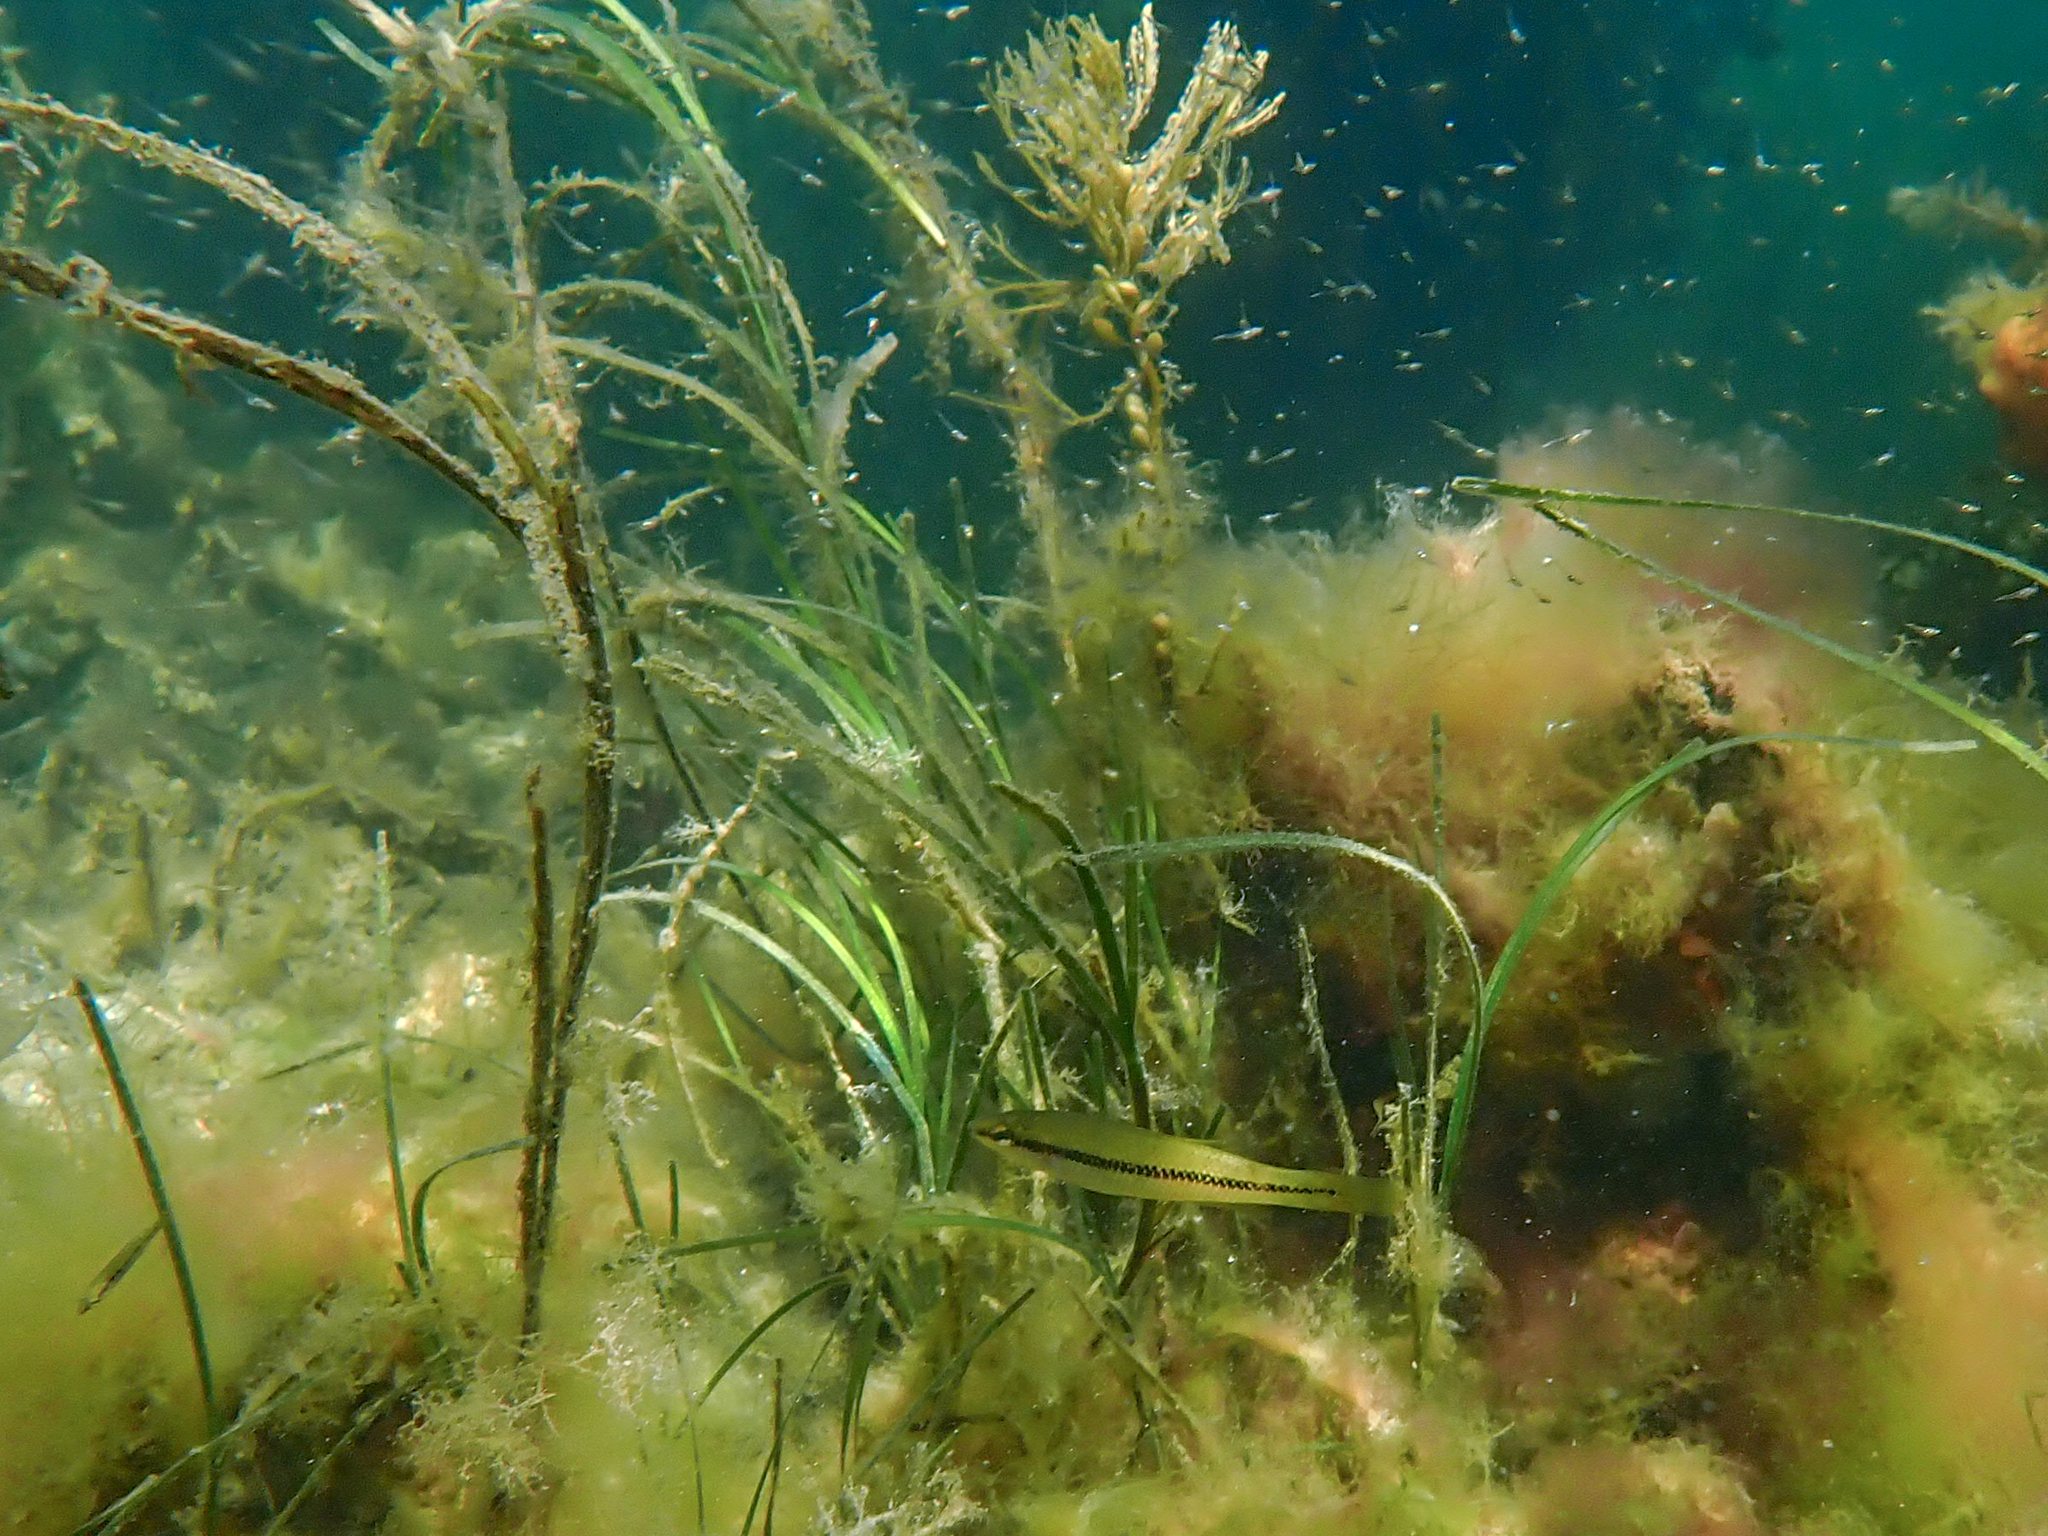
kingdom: Animalia
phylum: Chordata
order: Perciformes
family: Odacidae
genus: Neoodax
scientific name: Neoodax balteatus
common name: Ground mullet
